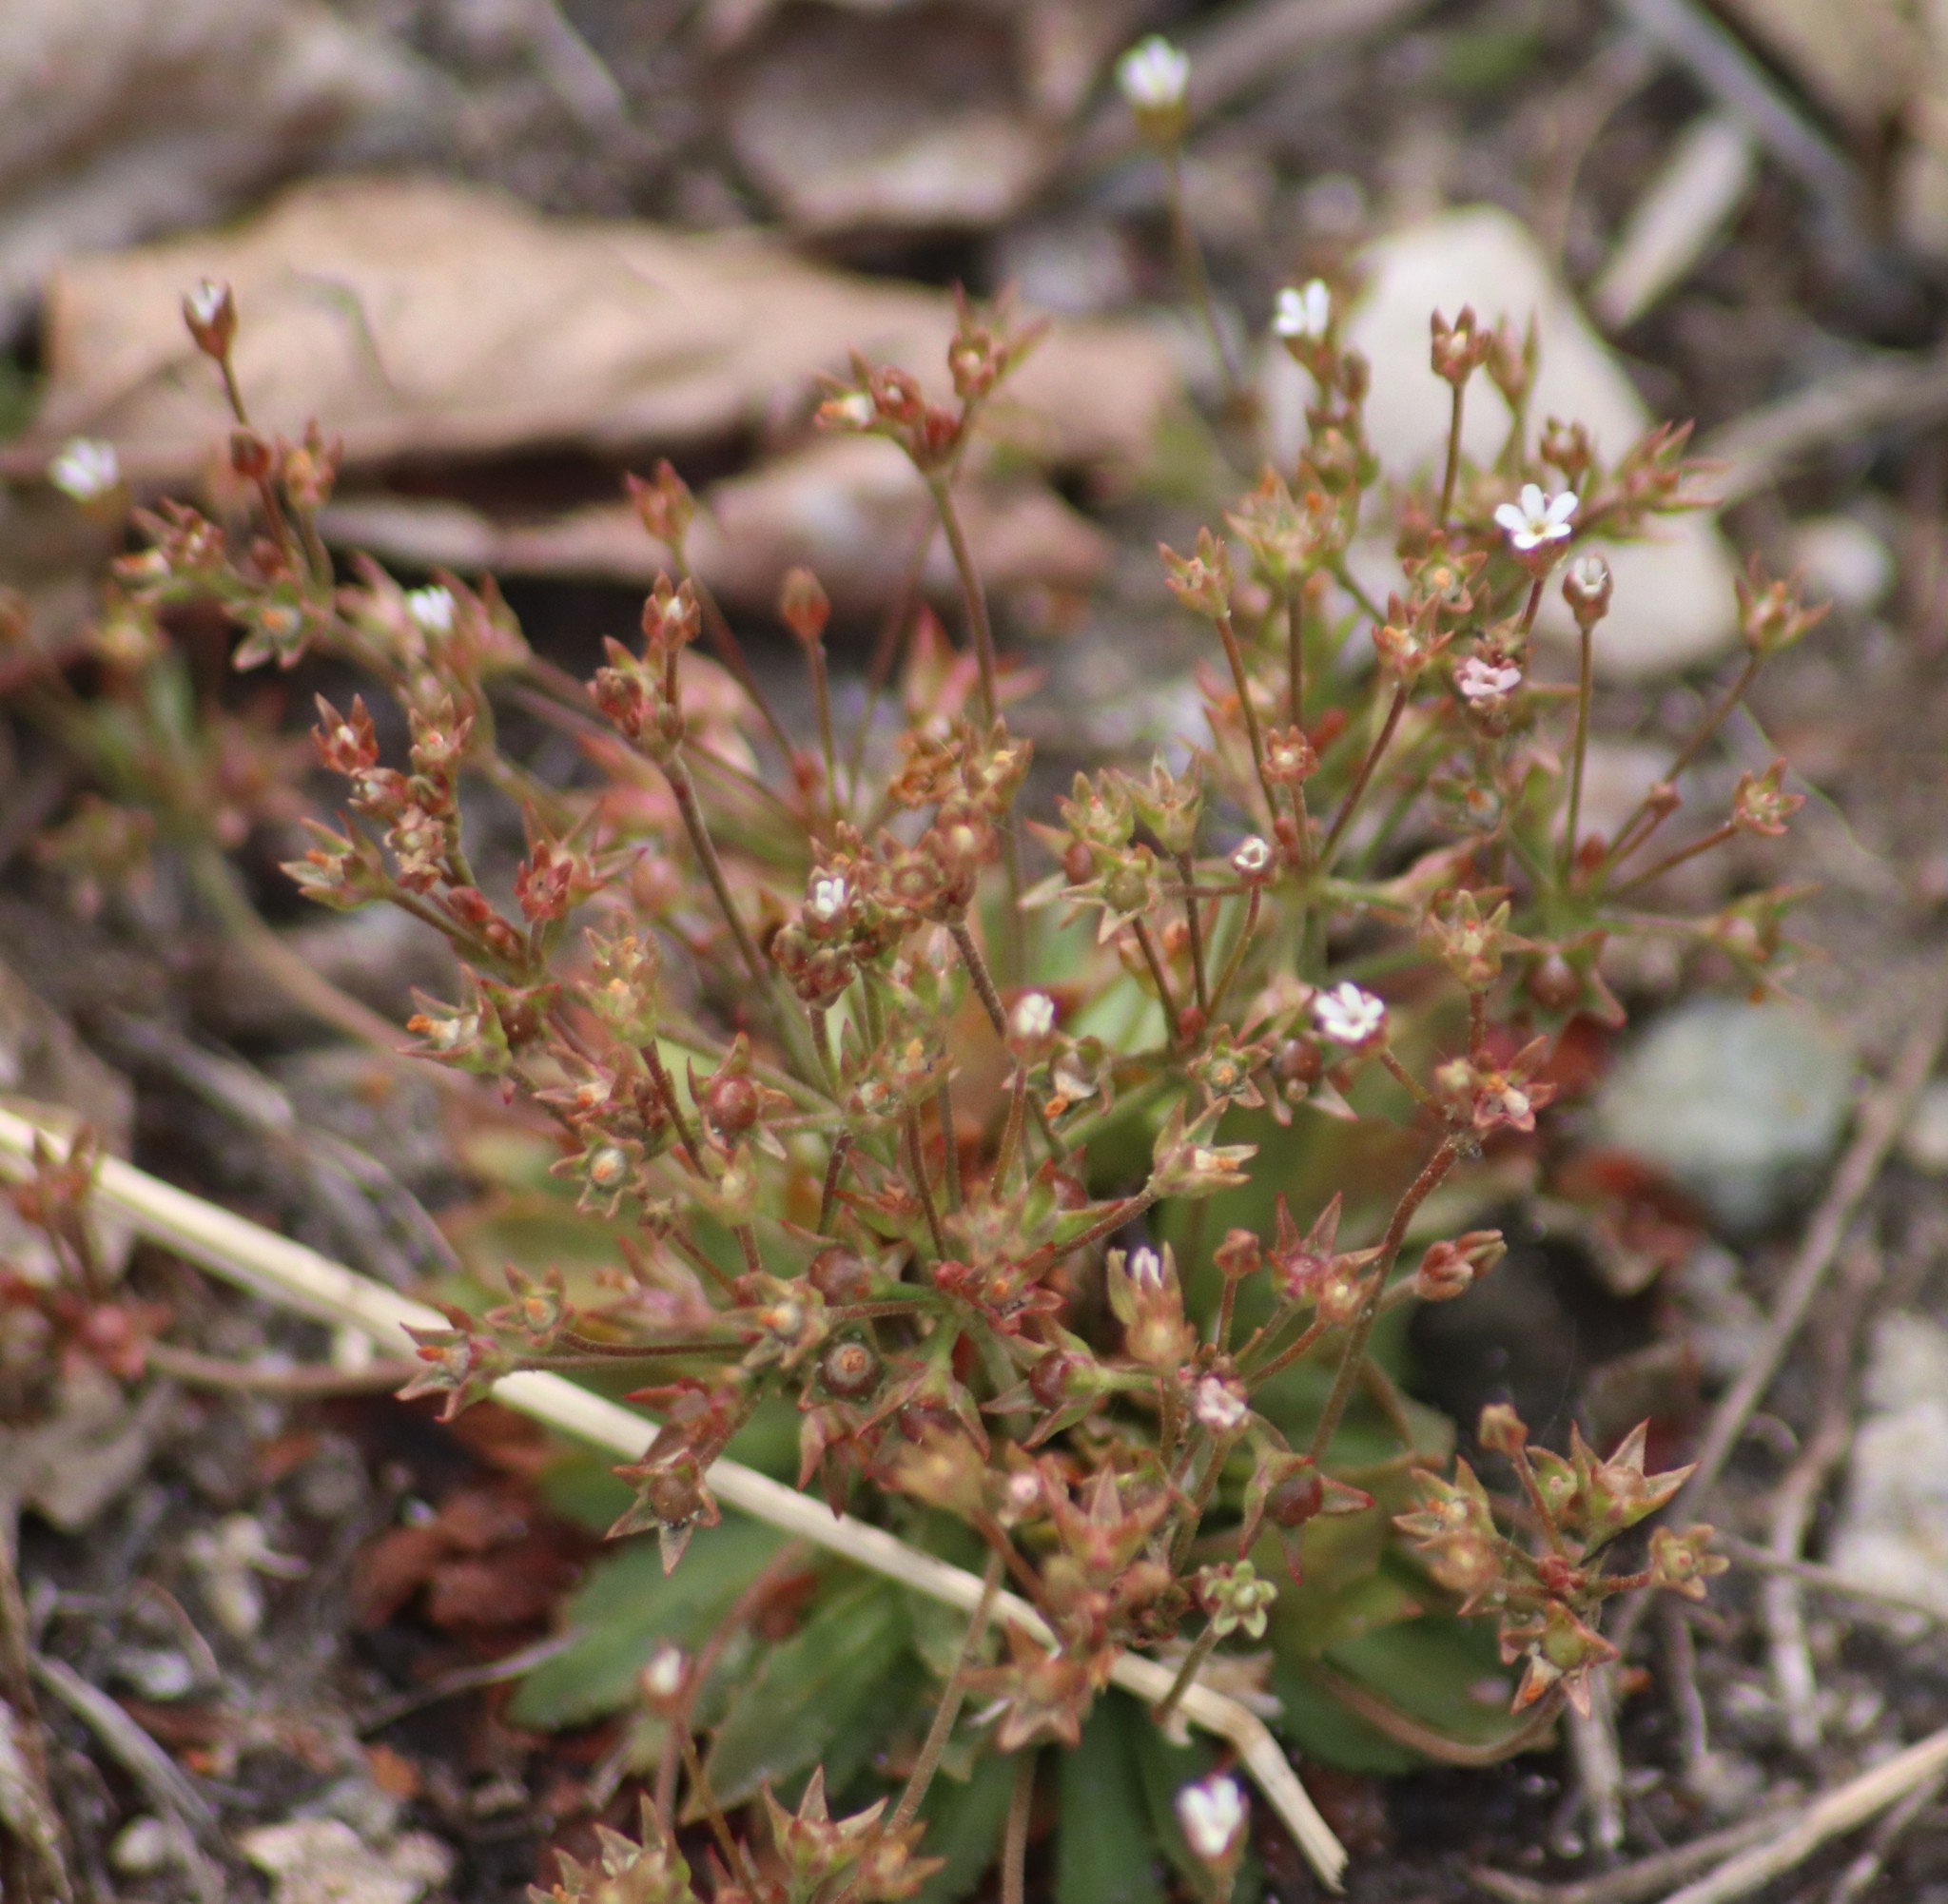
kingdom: Plantae
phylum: Tracheophyta
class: Magnoliopsida
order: Ericales
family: Primulaceae
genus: Androsace
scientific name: Androsace septentrionalis
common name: Hairy northern fairy-candelabra
